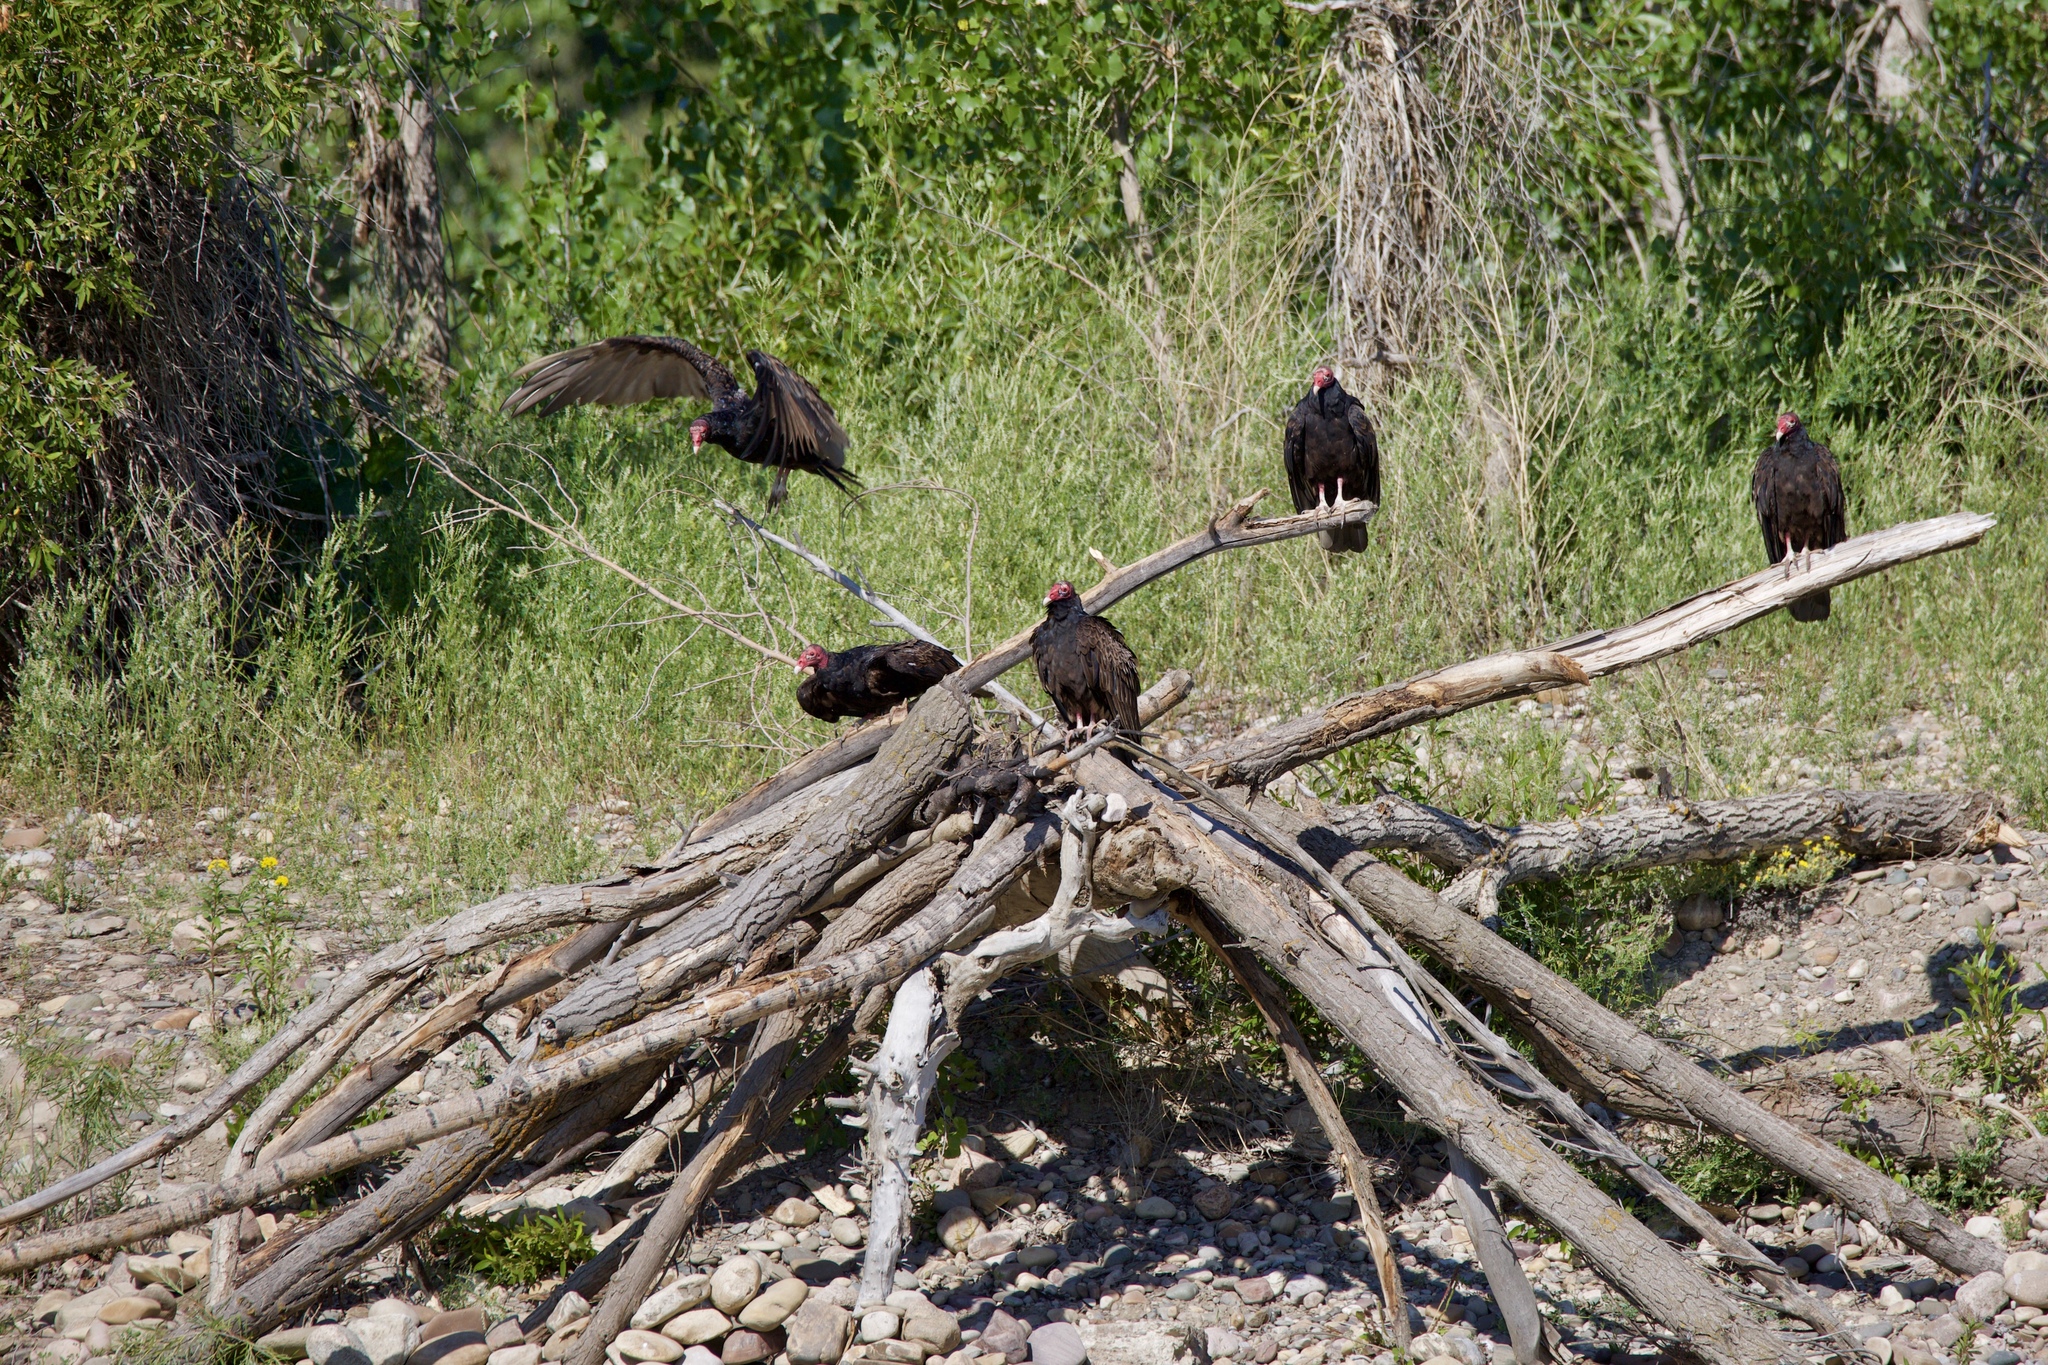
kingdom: Animalia
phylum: Chordata
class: Aves
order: Accipitriformes
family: Cathartidae
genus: Cathartes
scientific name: Cathartes aura
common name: Turkey vulture
